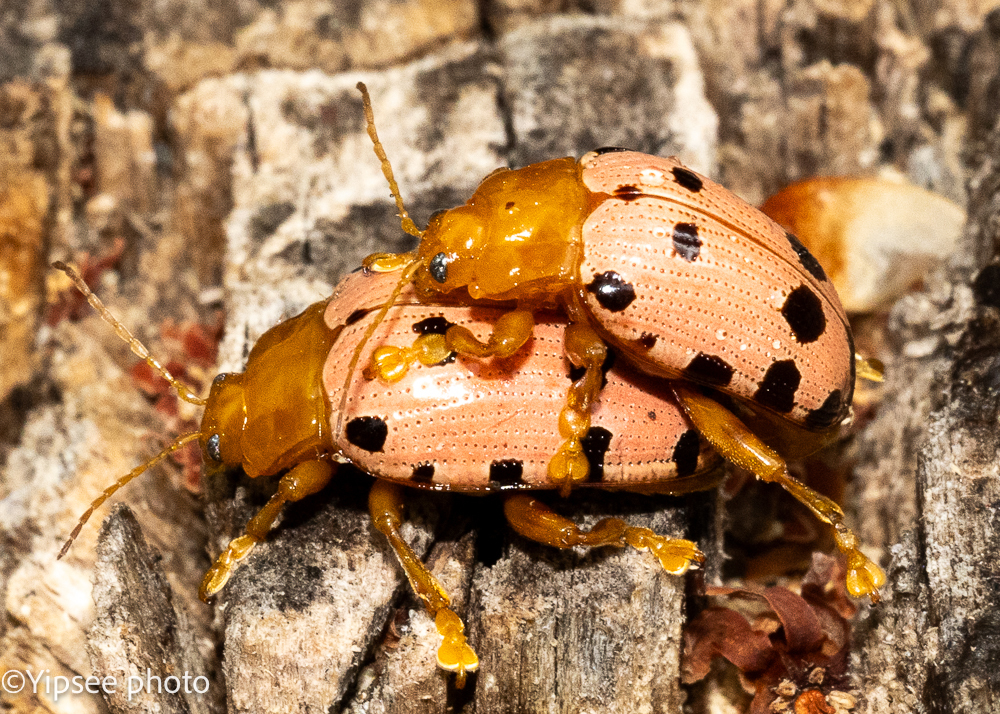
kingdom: Animalia
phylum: Arthropoda
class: Insecta
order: Coleoptera
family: Chrysomelidae
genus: Podontia
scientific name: Podontia
